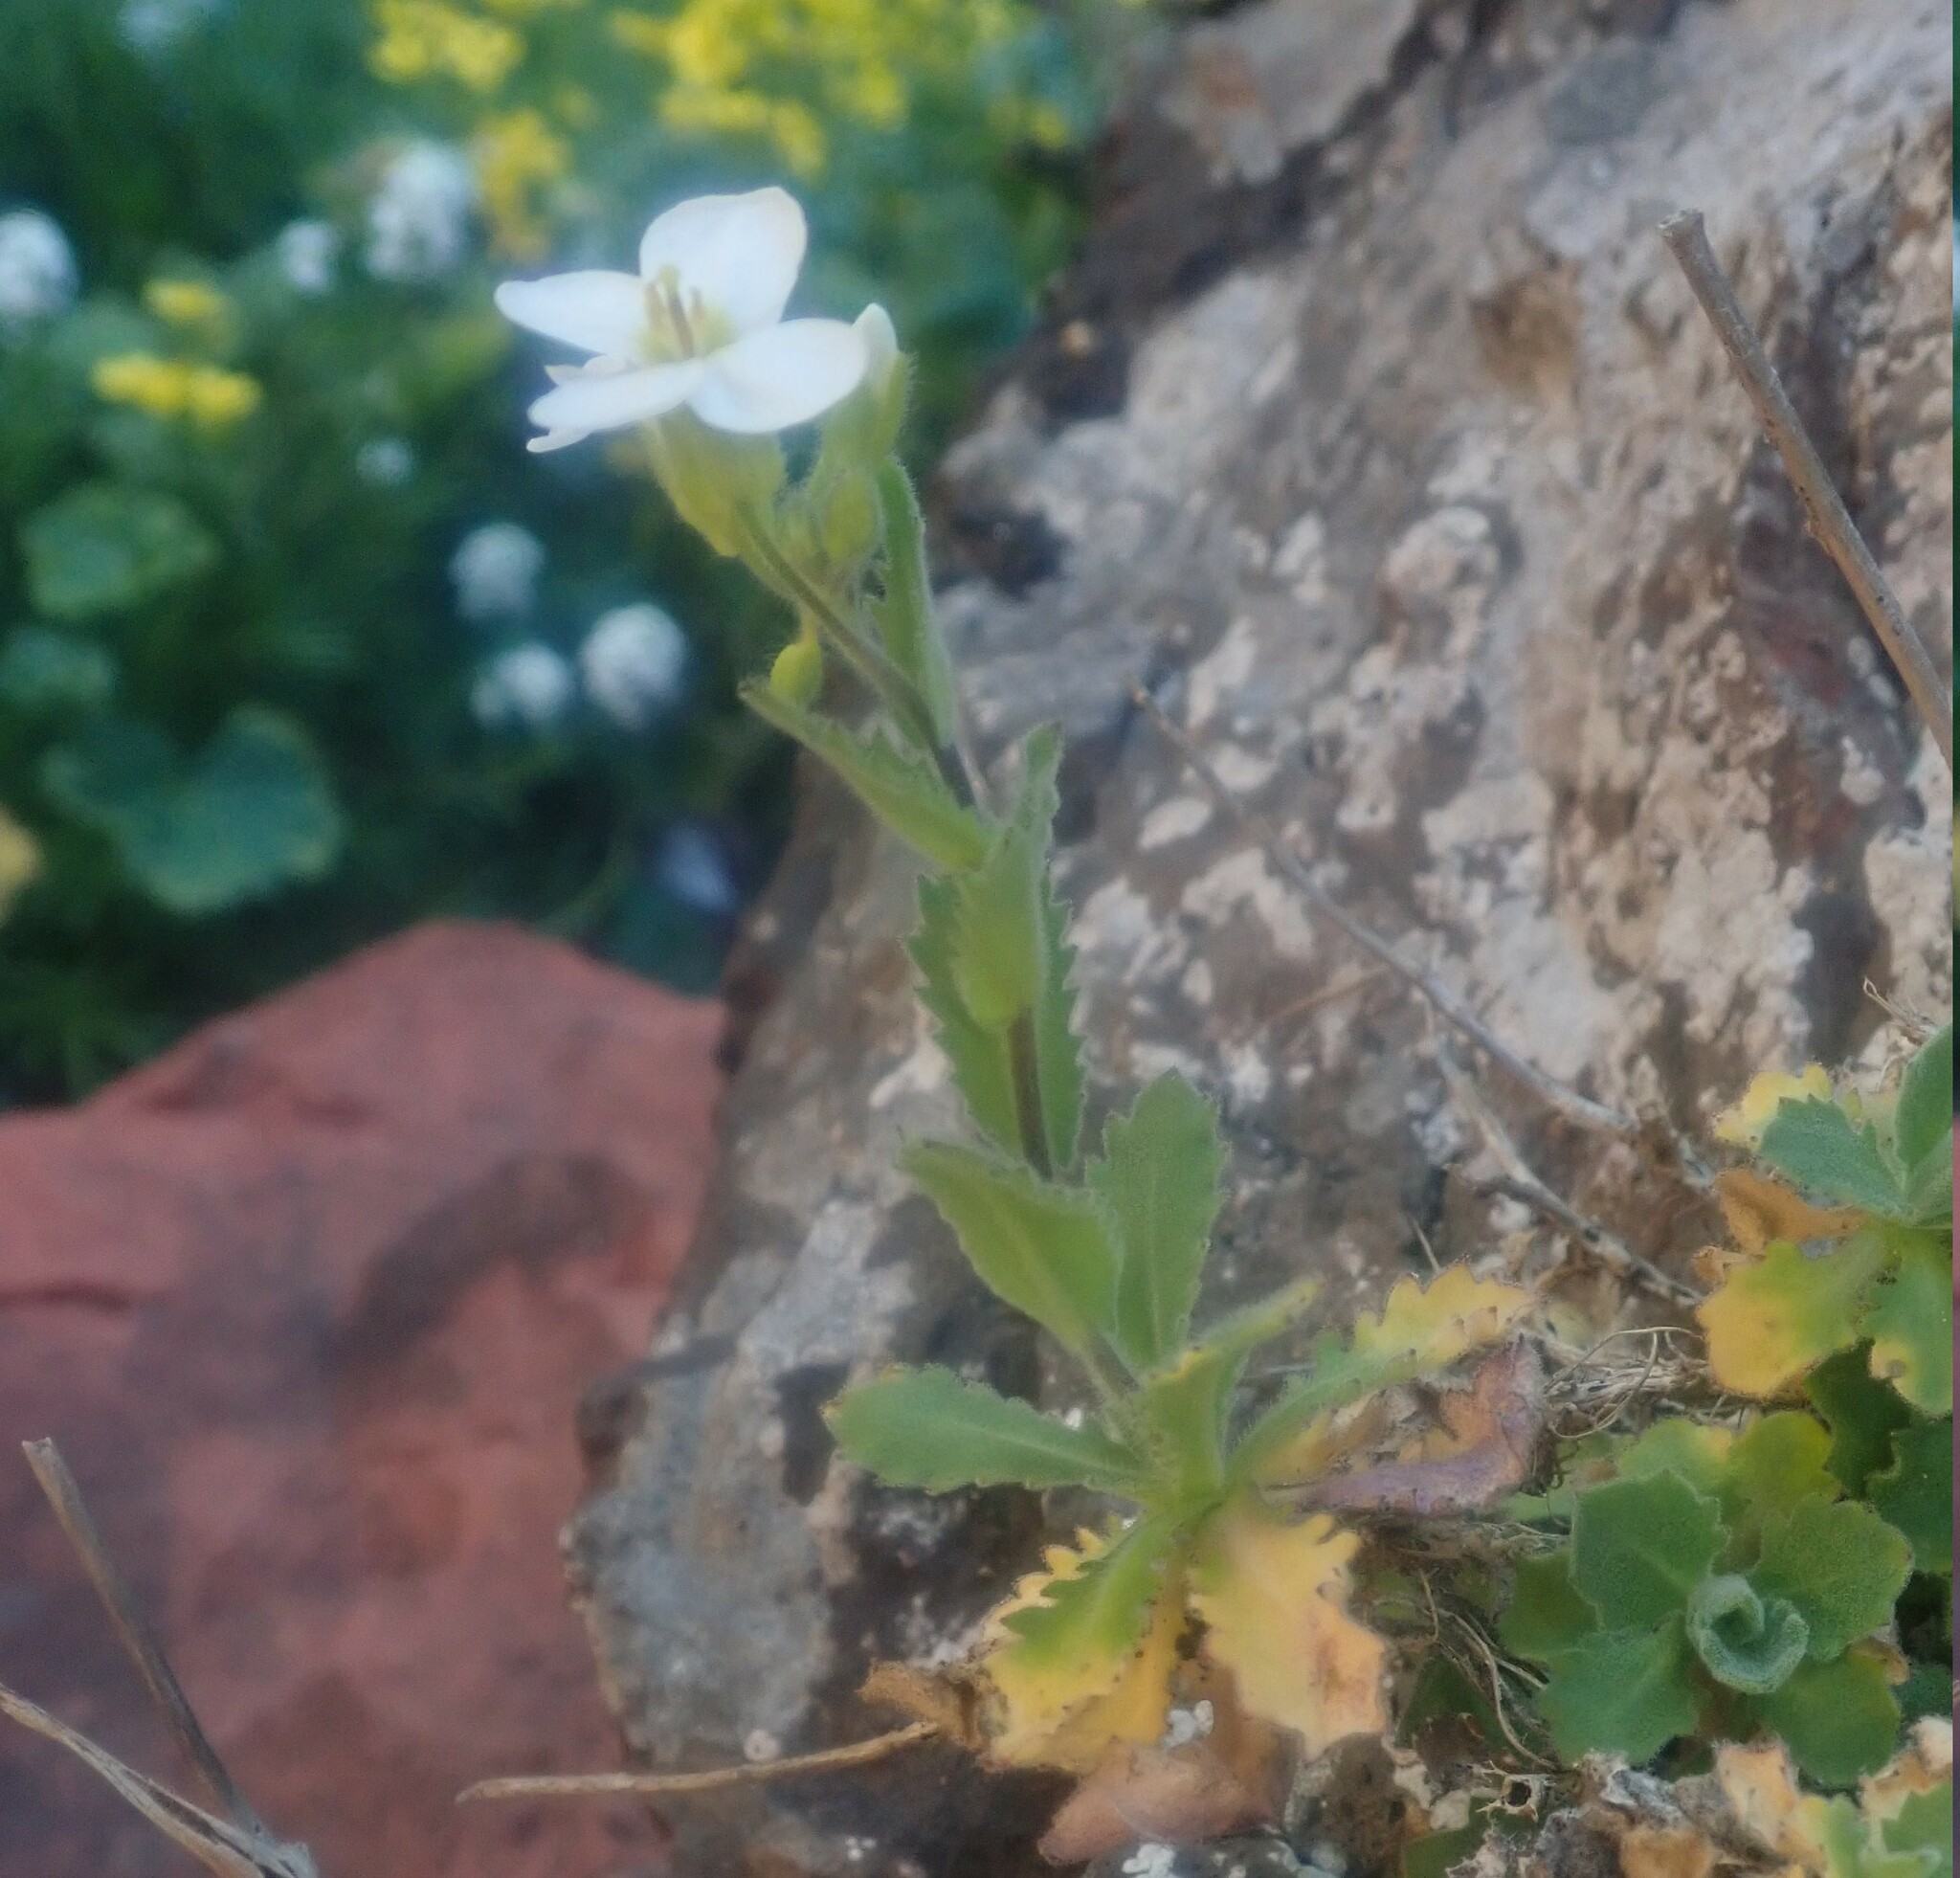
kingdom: Plantae
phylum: Tracheophyta
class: Magnoliopsida
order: Brassicales
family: Brassicaceae
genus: Arabis
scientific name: Arabis caucasica
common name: Gray rockcress
